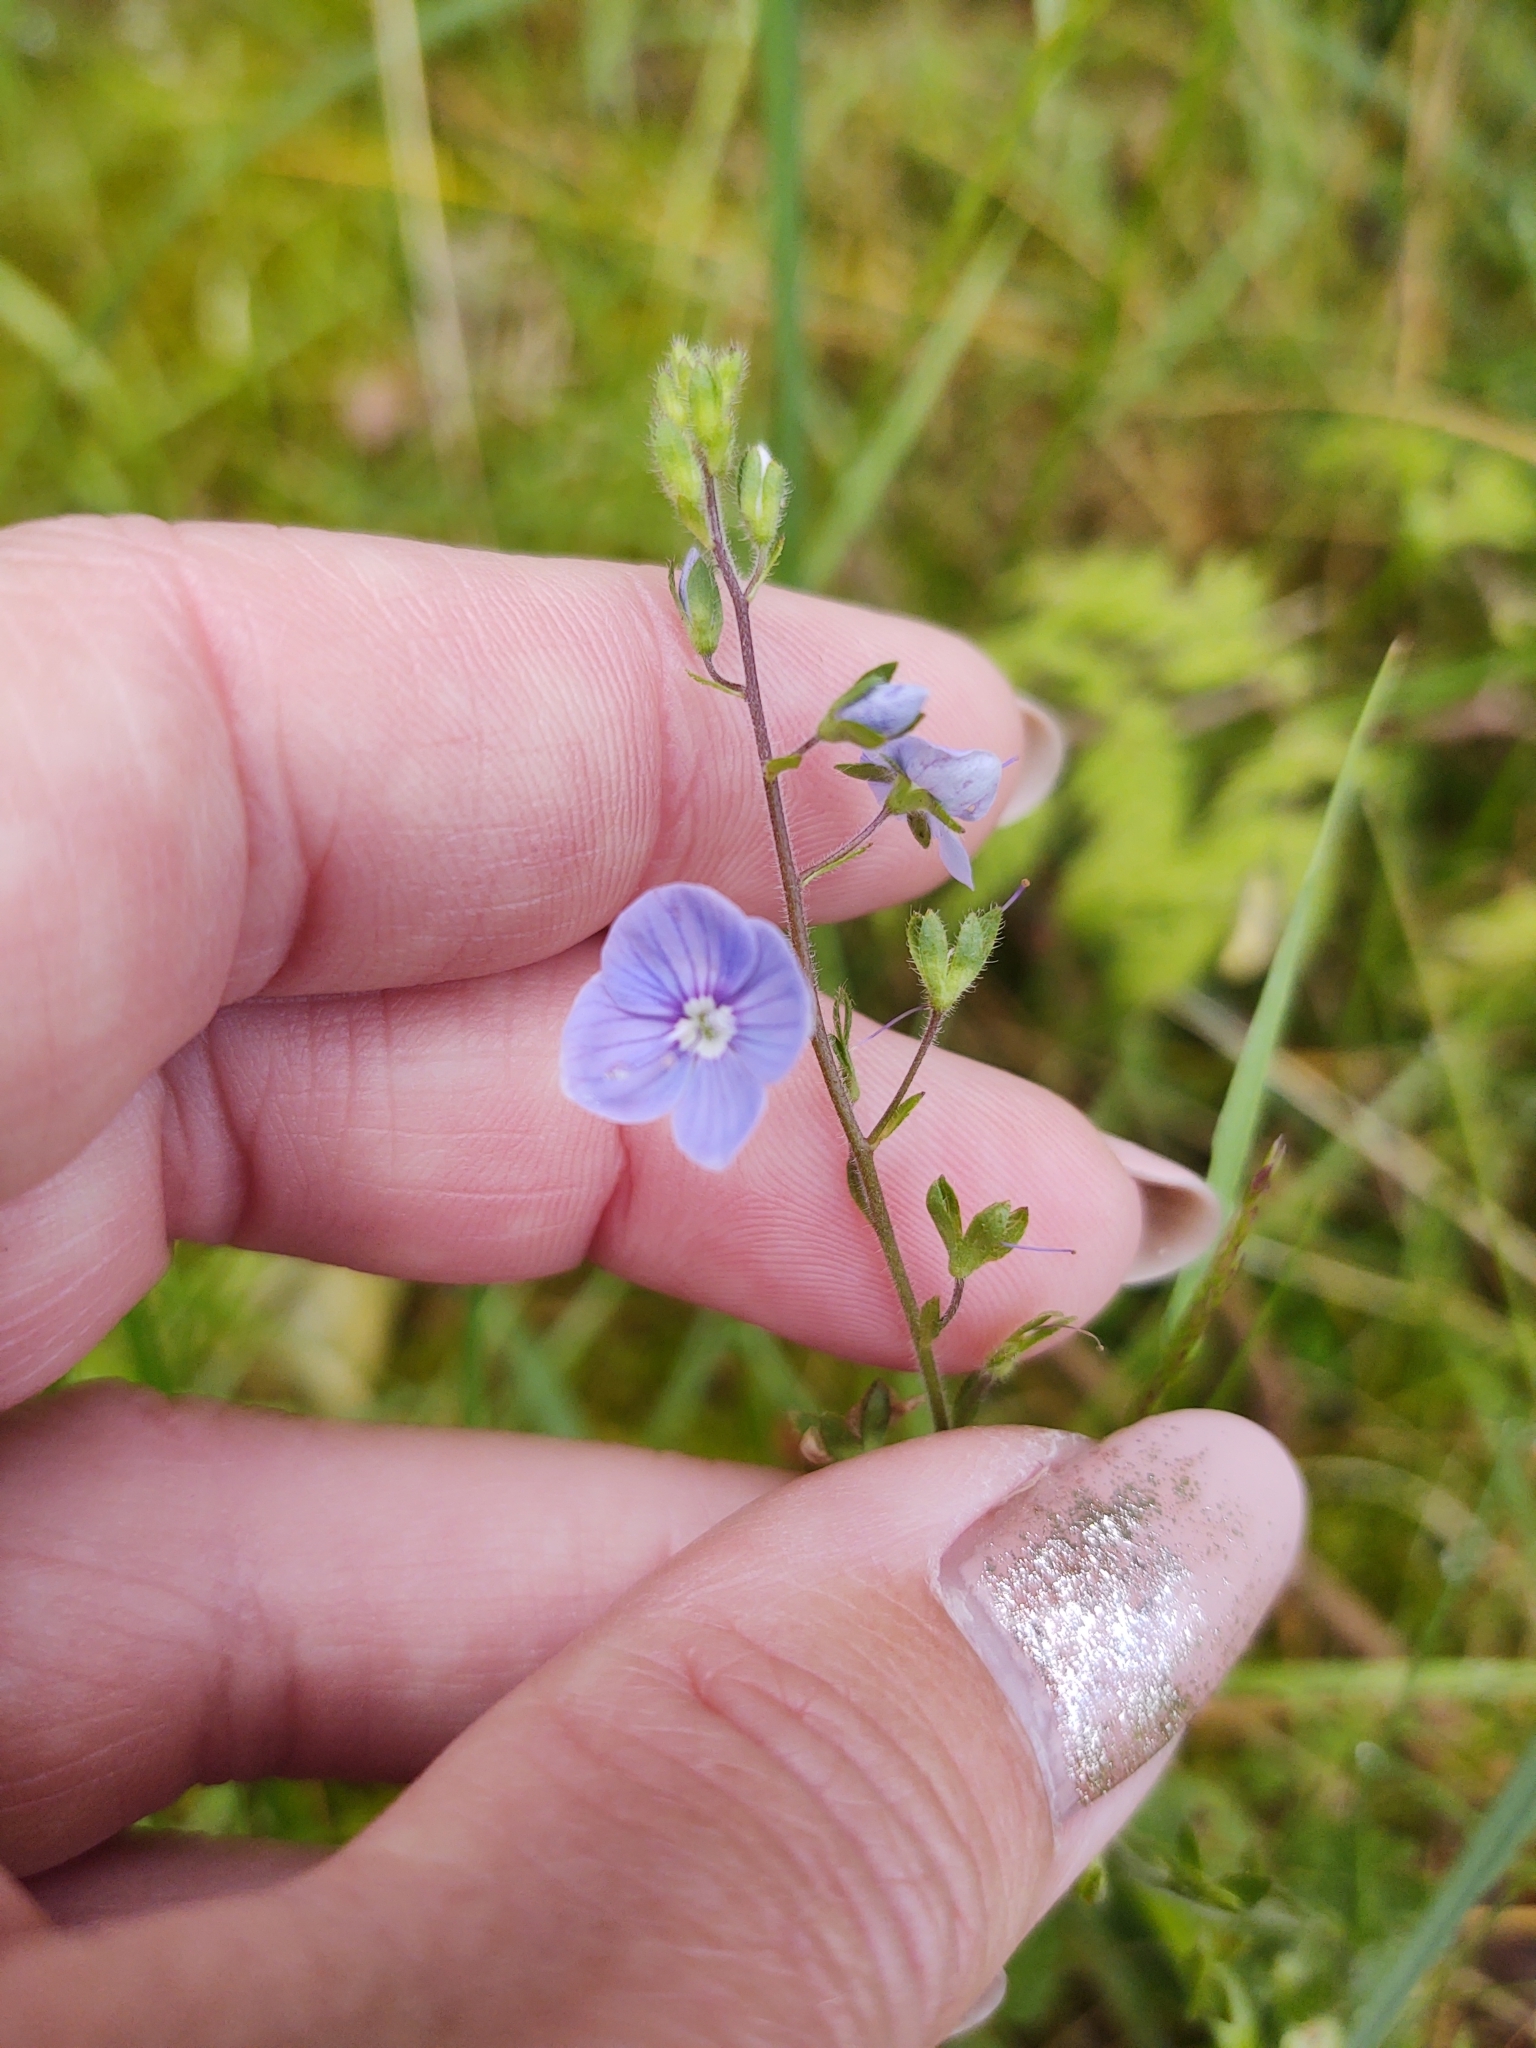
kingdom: Plantae
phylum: Tracheophyta
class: Magnoliopsida
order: Lamiales
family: Plantaginaceae
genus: Veronica
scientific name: Veronica chamaedrys
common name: Germander speedwell
